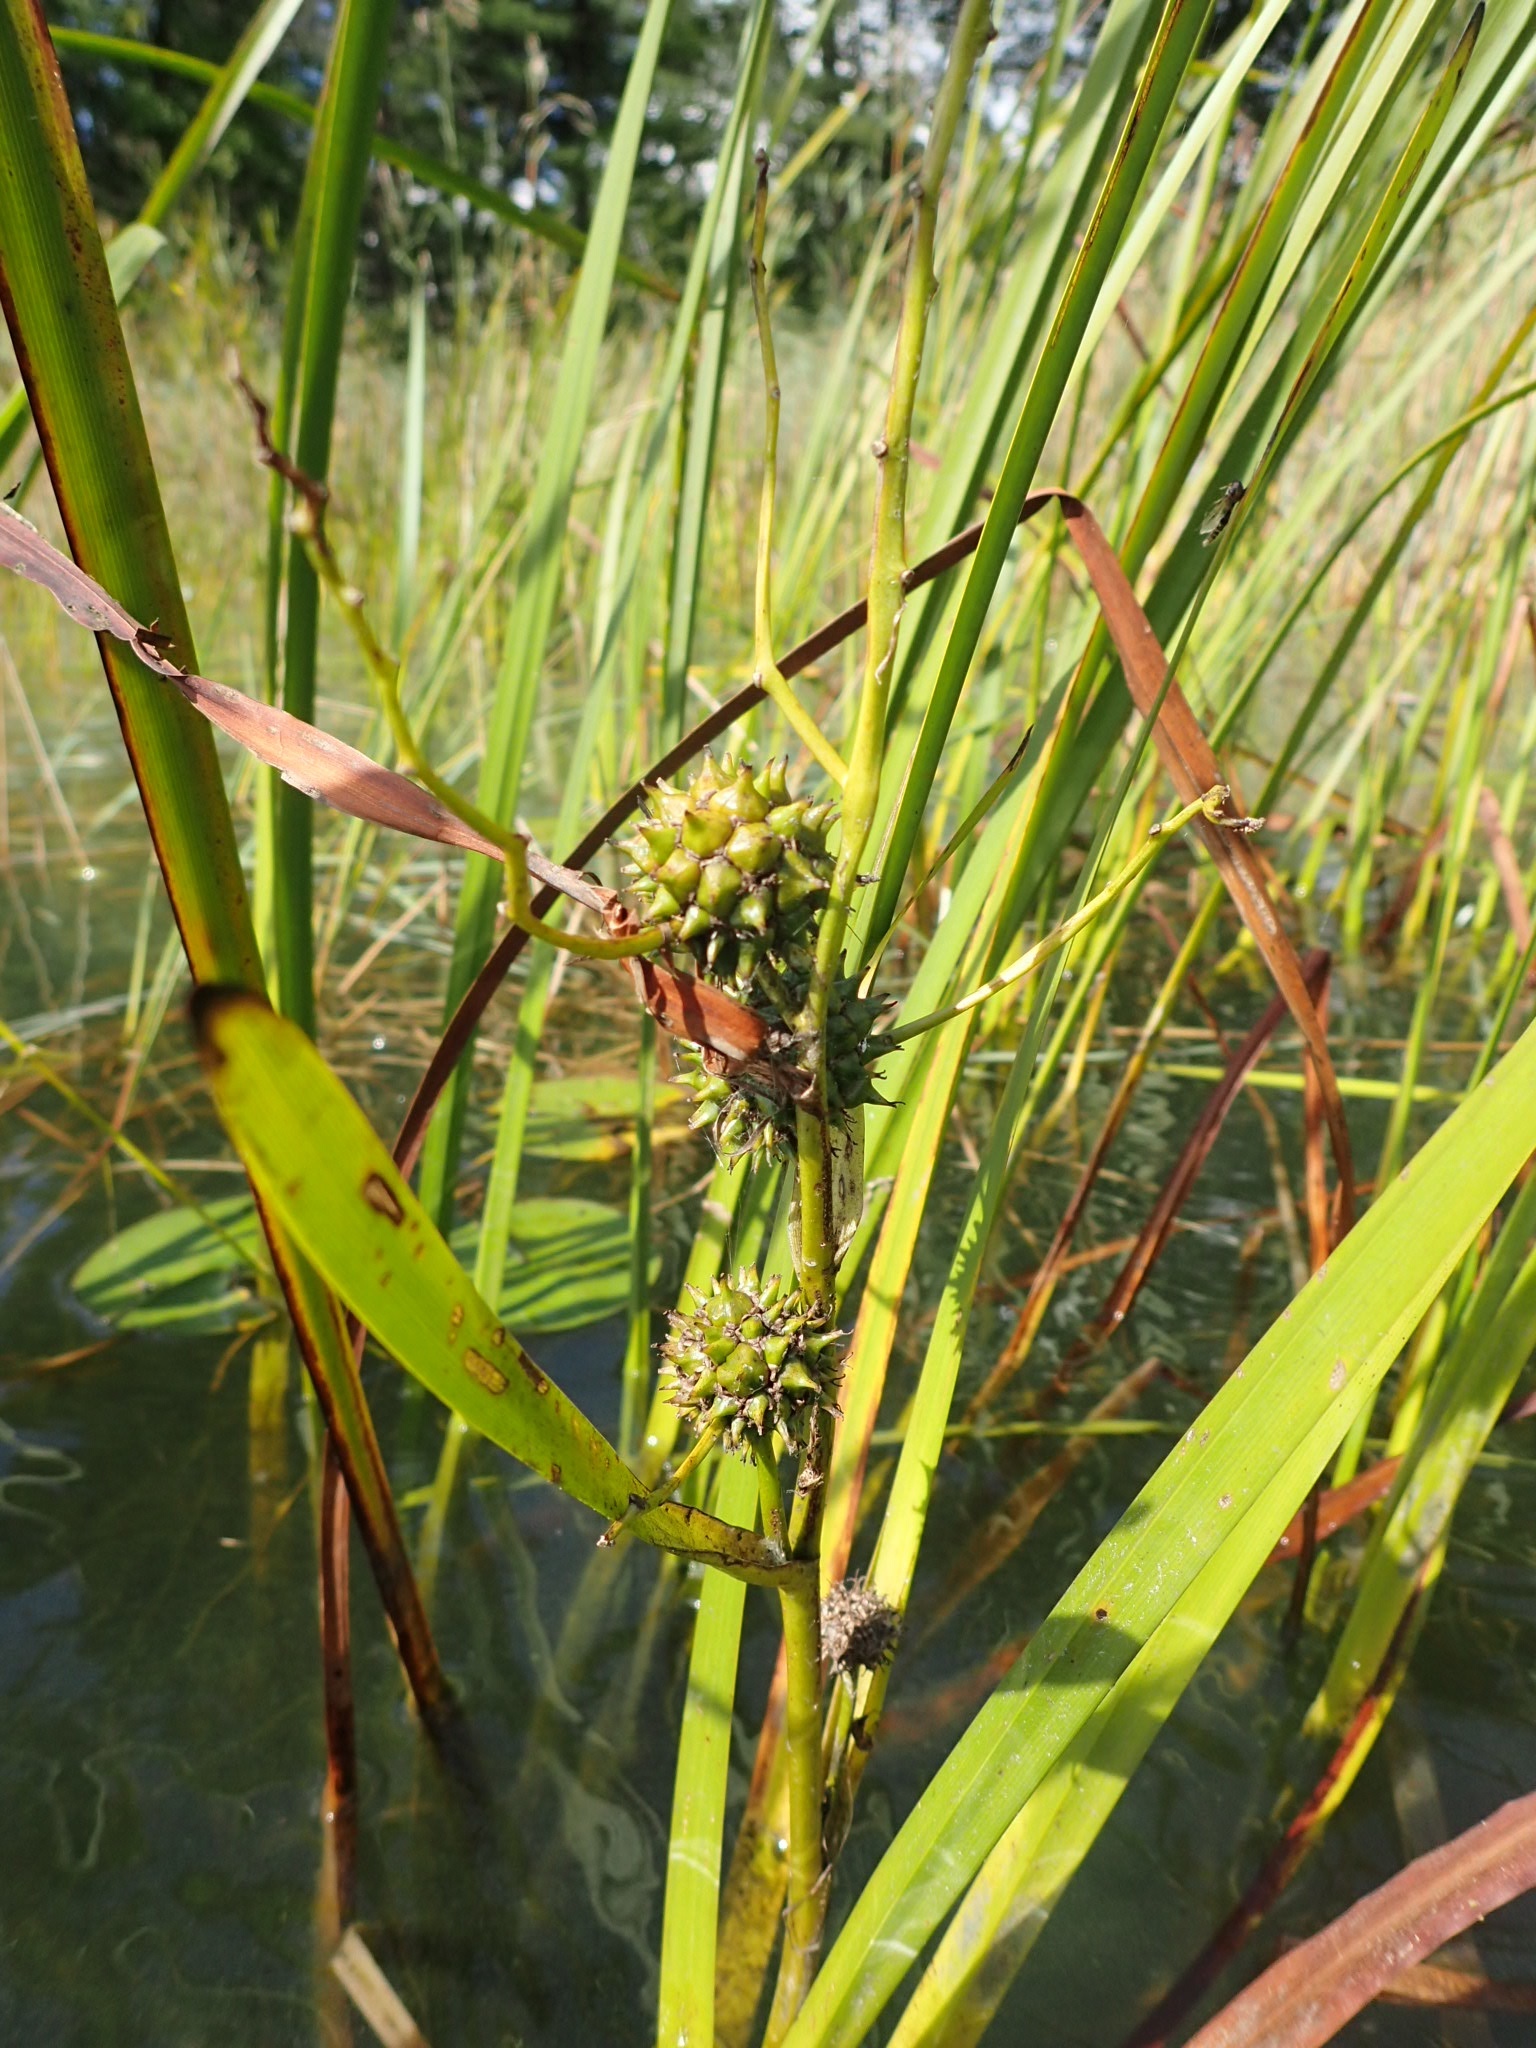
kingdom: Plantae
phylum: Tracheophyta
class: Liliopsida
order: Poales
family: Typhaceae
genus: Sparganium
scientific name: Sparganium eurycarpum
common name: Broad-fruited burreed
